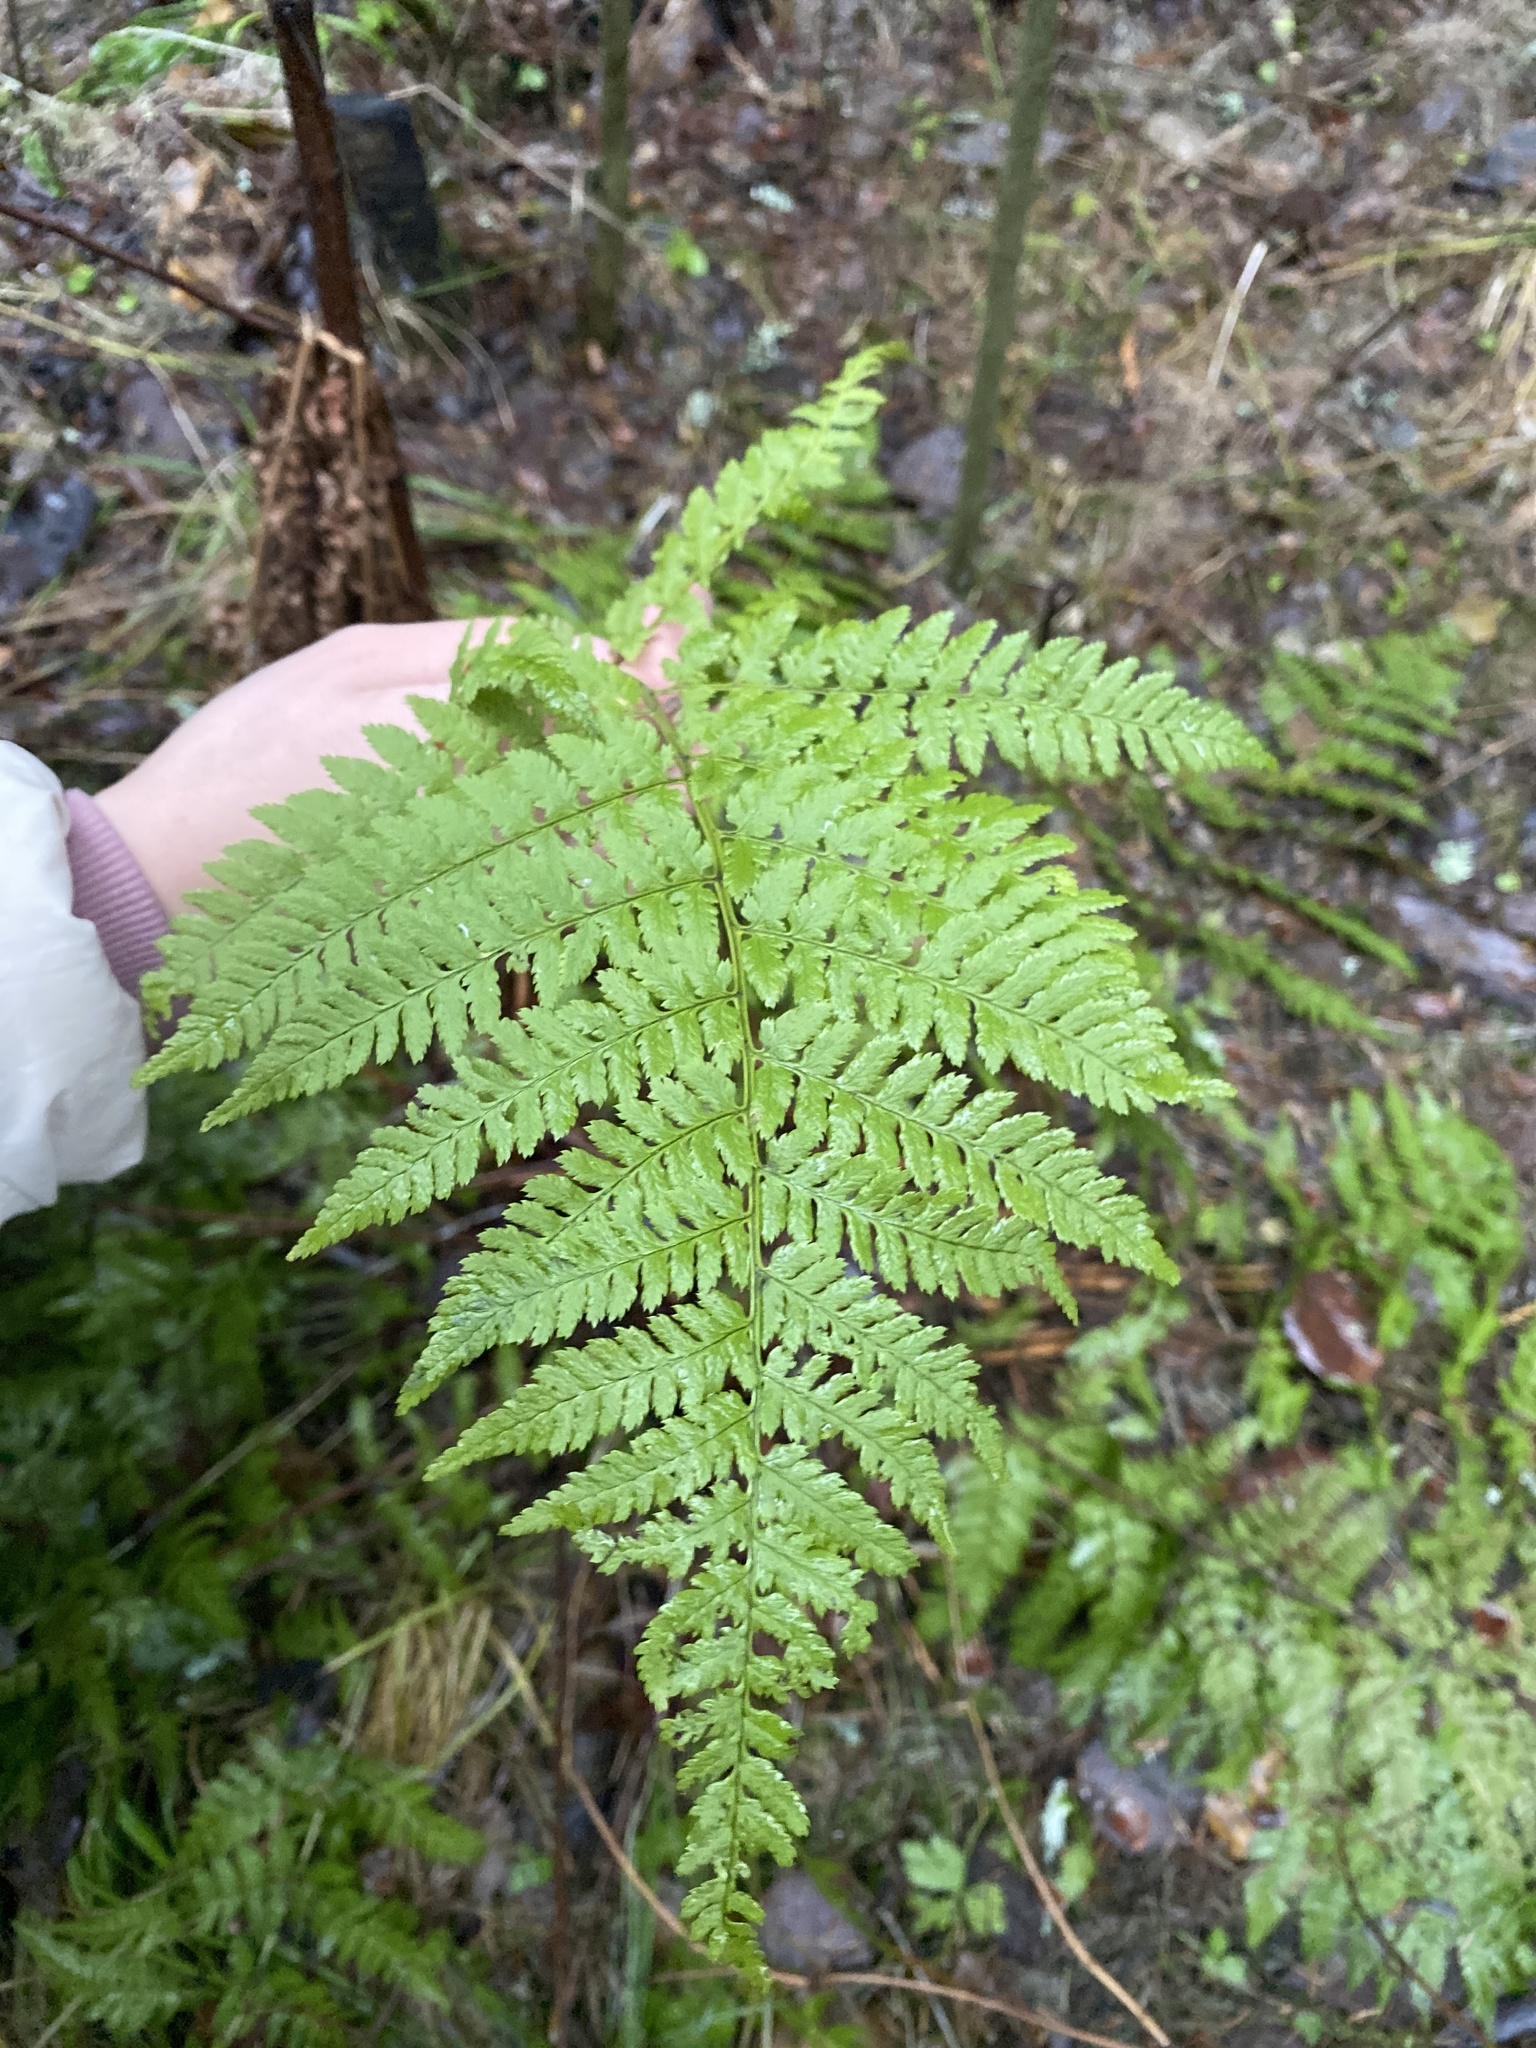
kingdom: Plantae
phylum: Tracheophyta
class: Polypodiopsida
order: Polypodiales
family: Dryopteridaceae
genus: Dryopteris
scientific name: Dryopteris expansa
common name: Northern buckler fern
